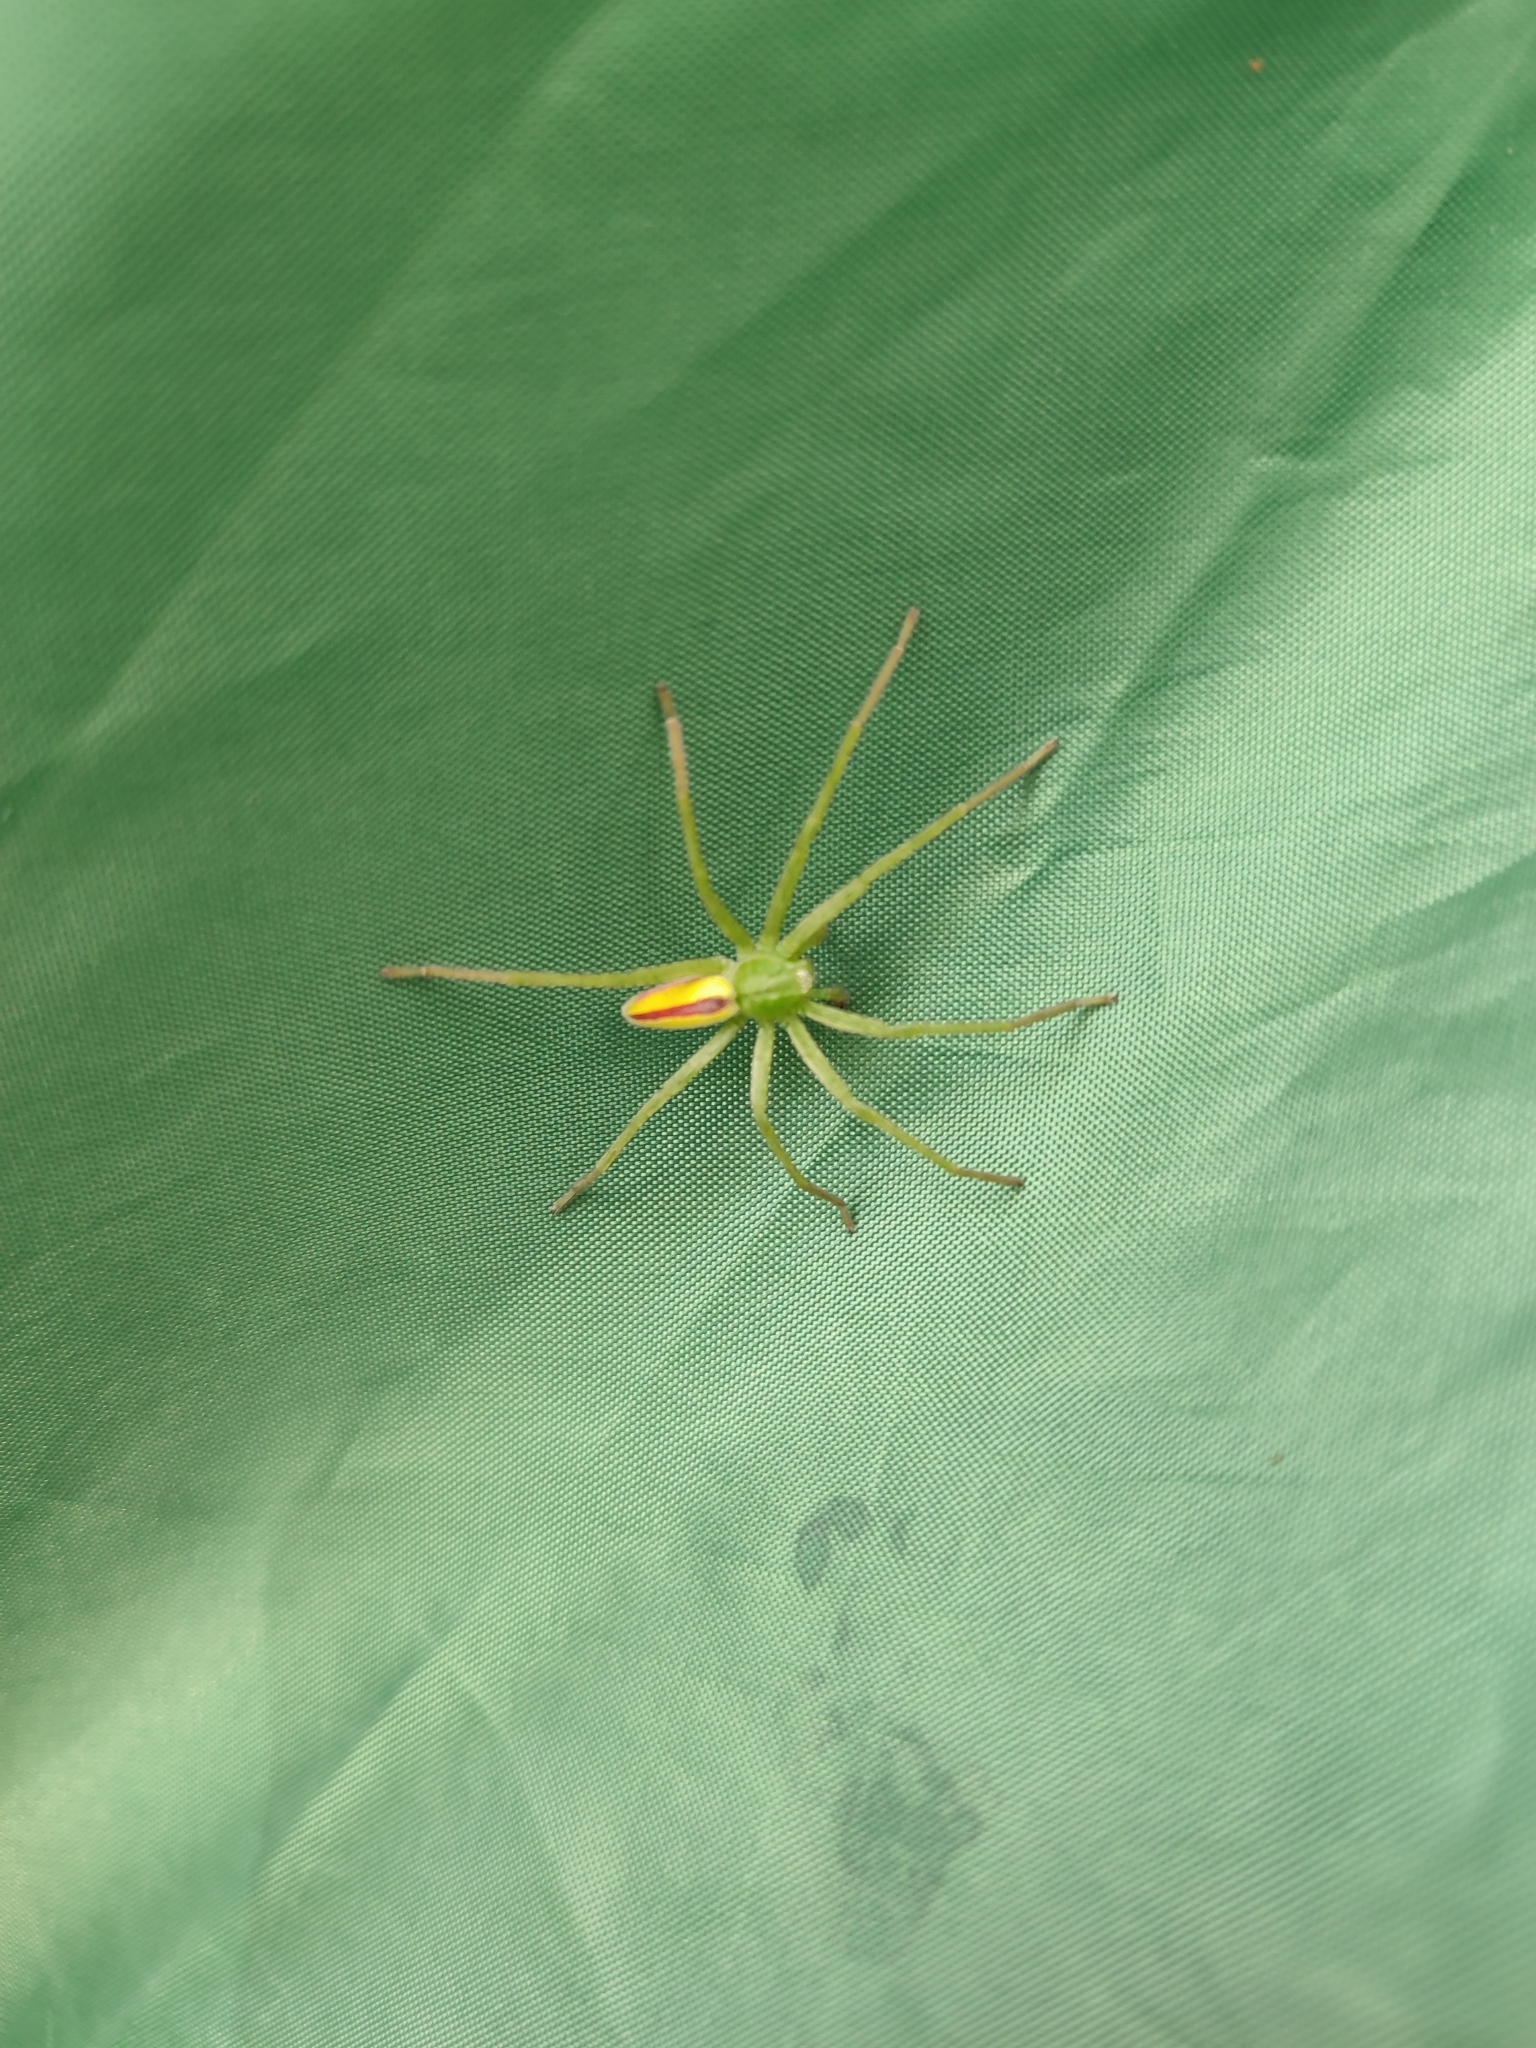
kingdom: Animalia
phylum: Arthropoda
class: Arachnida
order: Araneae
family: Sparassidae
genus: Micrommata
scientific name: Micrommata virescens
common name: Green spider
